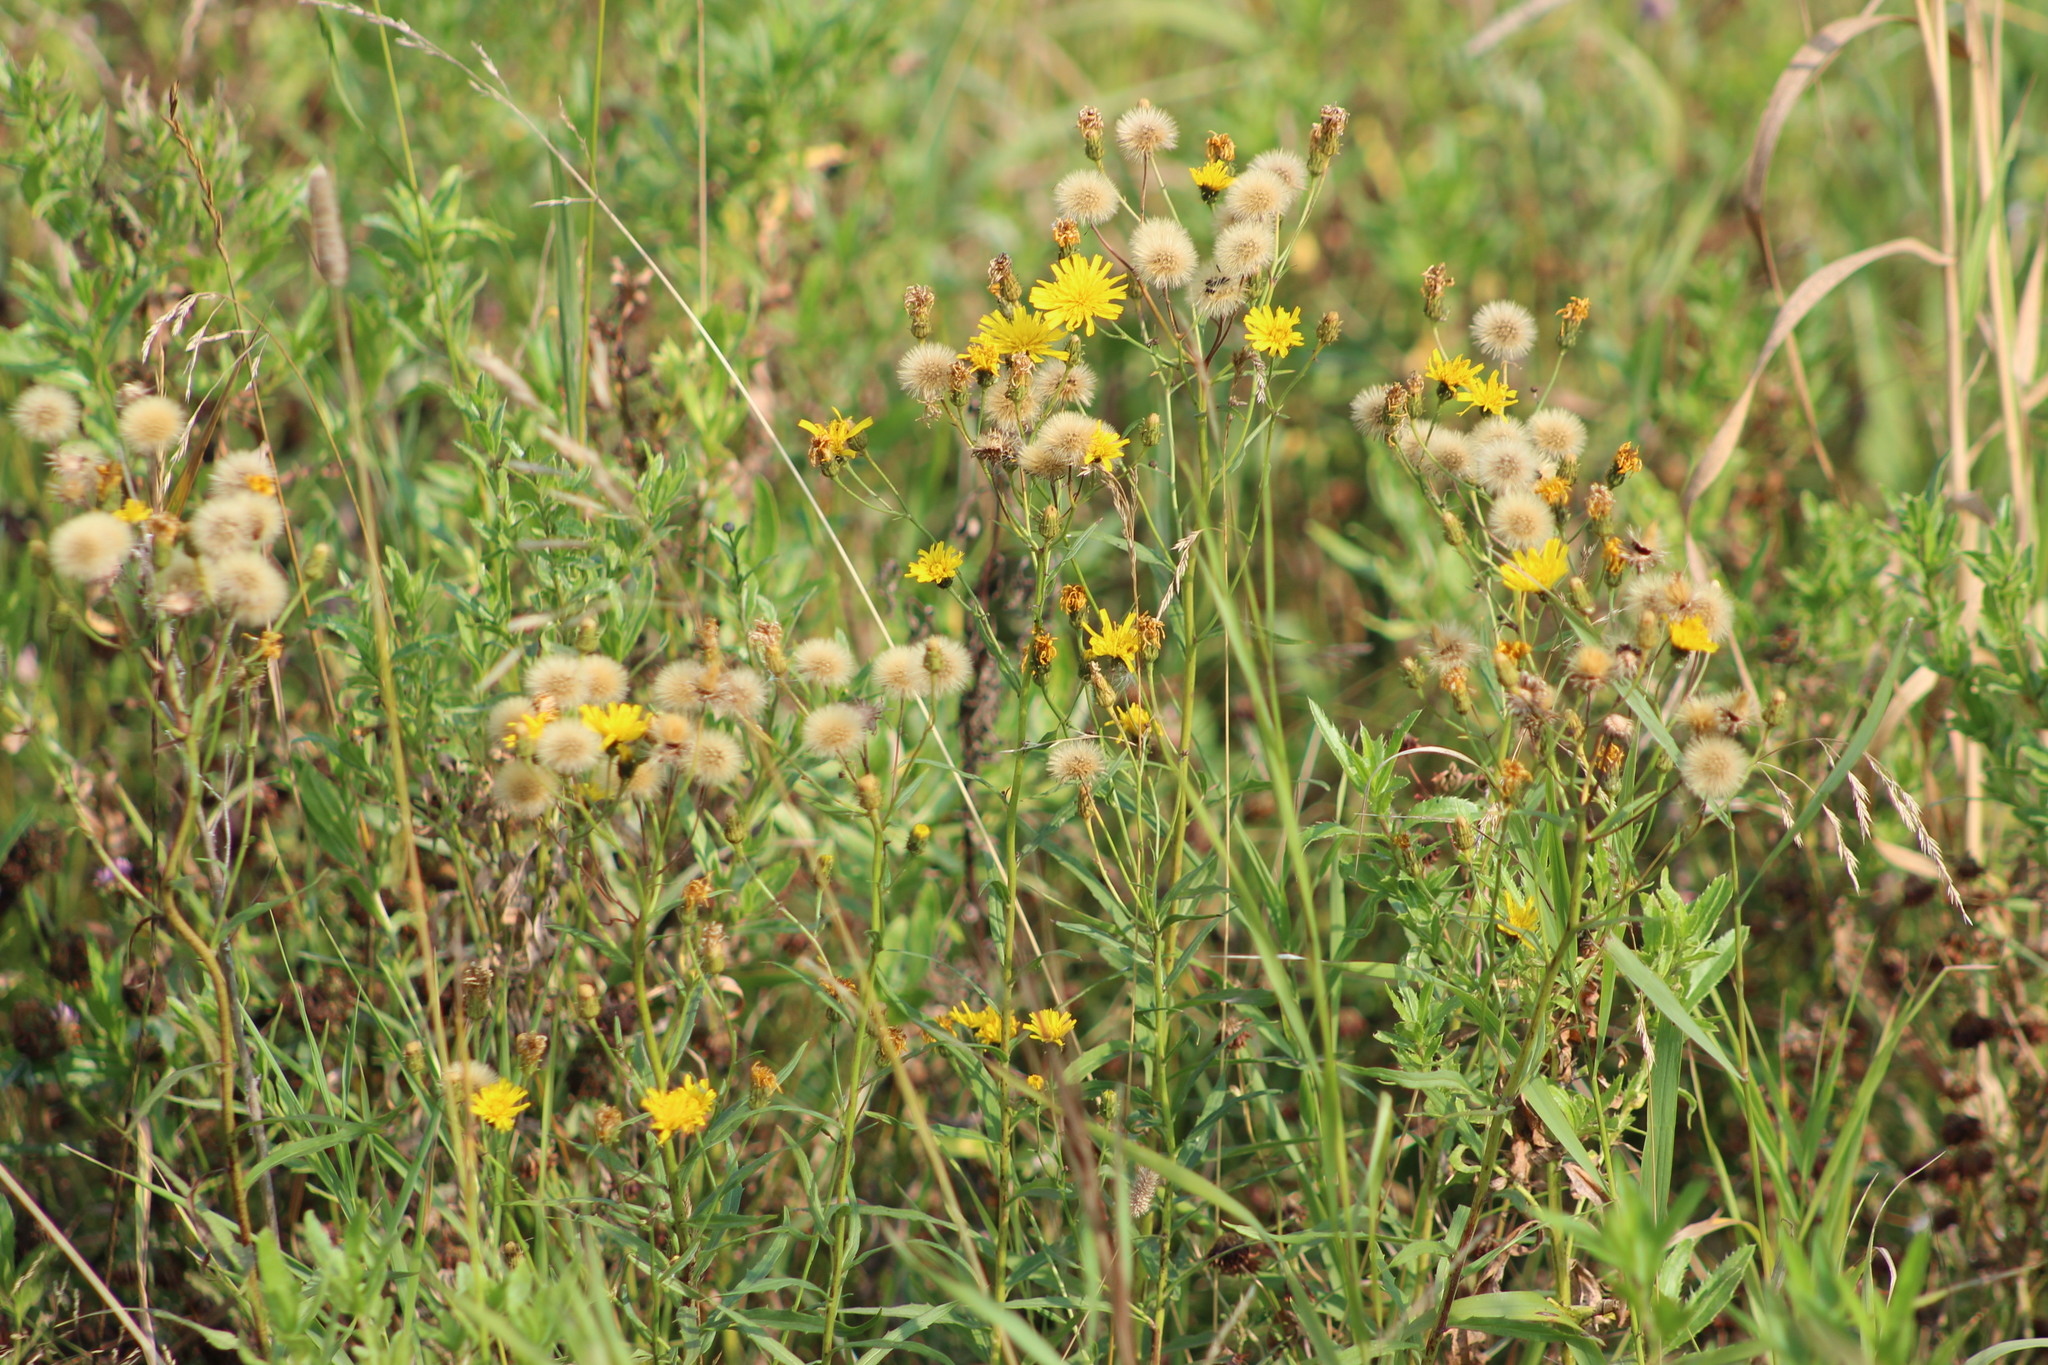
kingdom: Plantae
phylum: Tracheophyta
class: Magnoliopsida
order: Asterales
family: Asteraceae
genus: Hieracium
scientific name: Hieracium umbellatum
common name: Northern hawkweed
